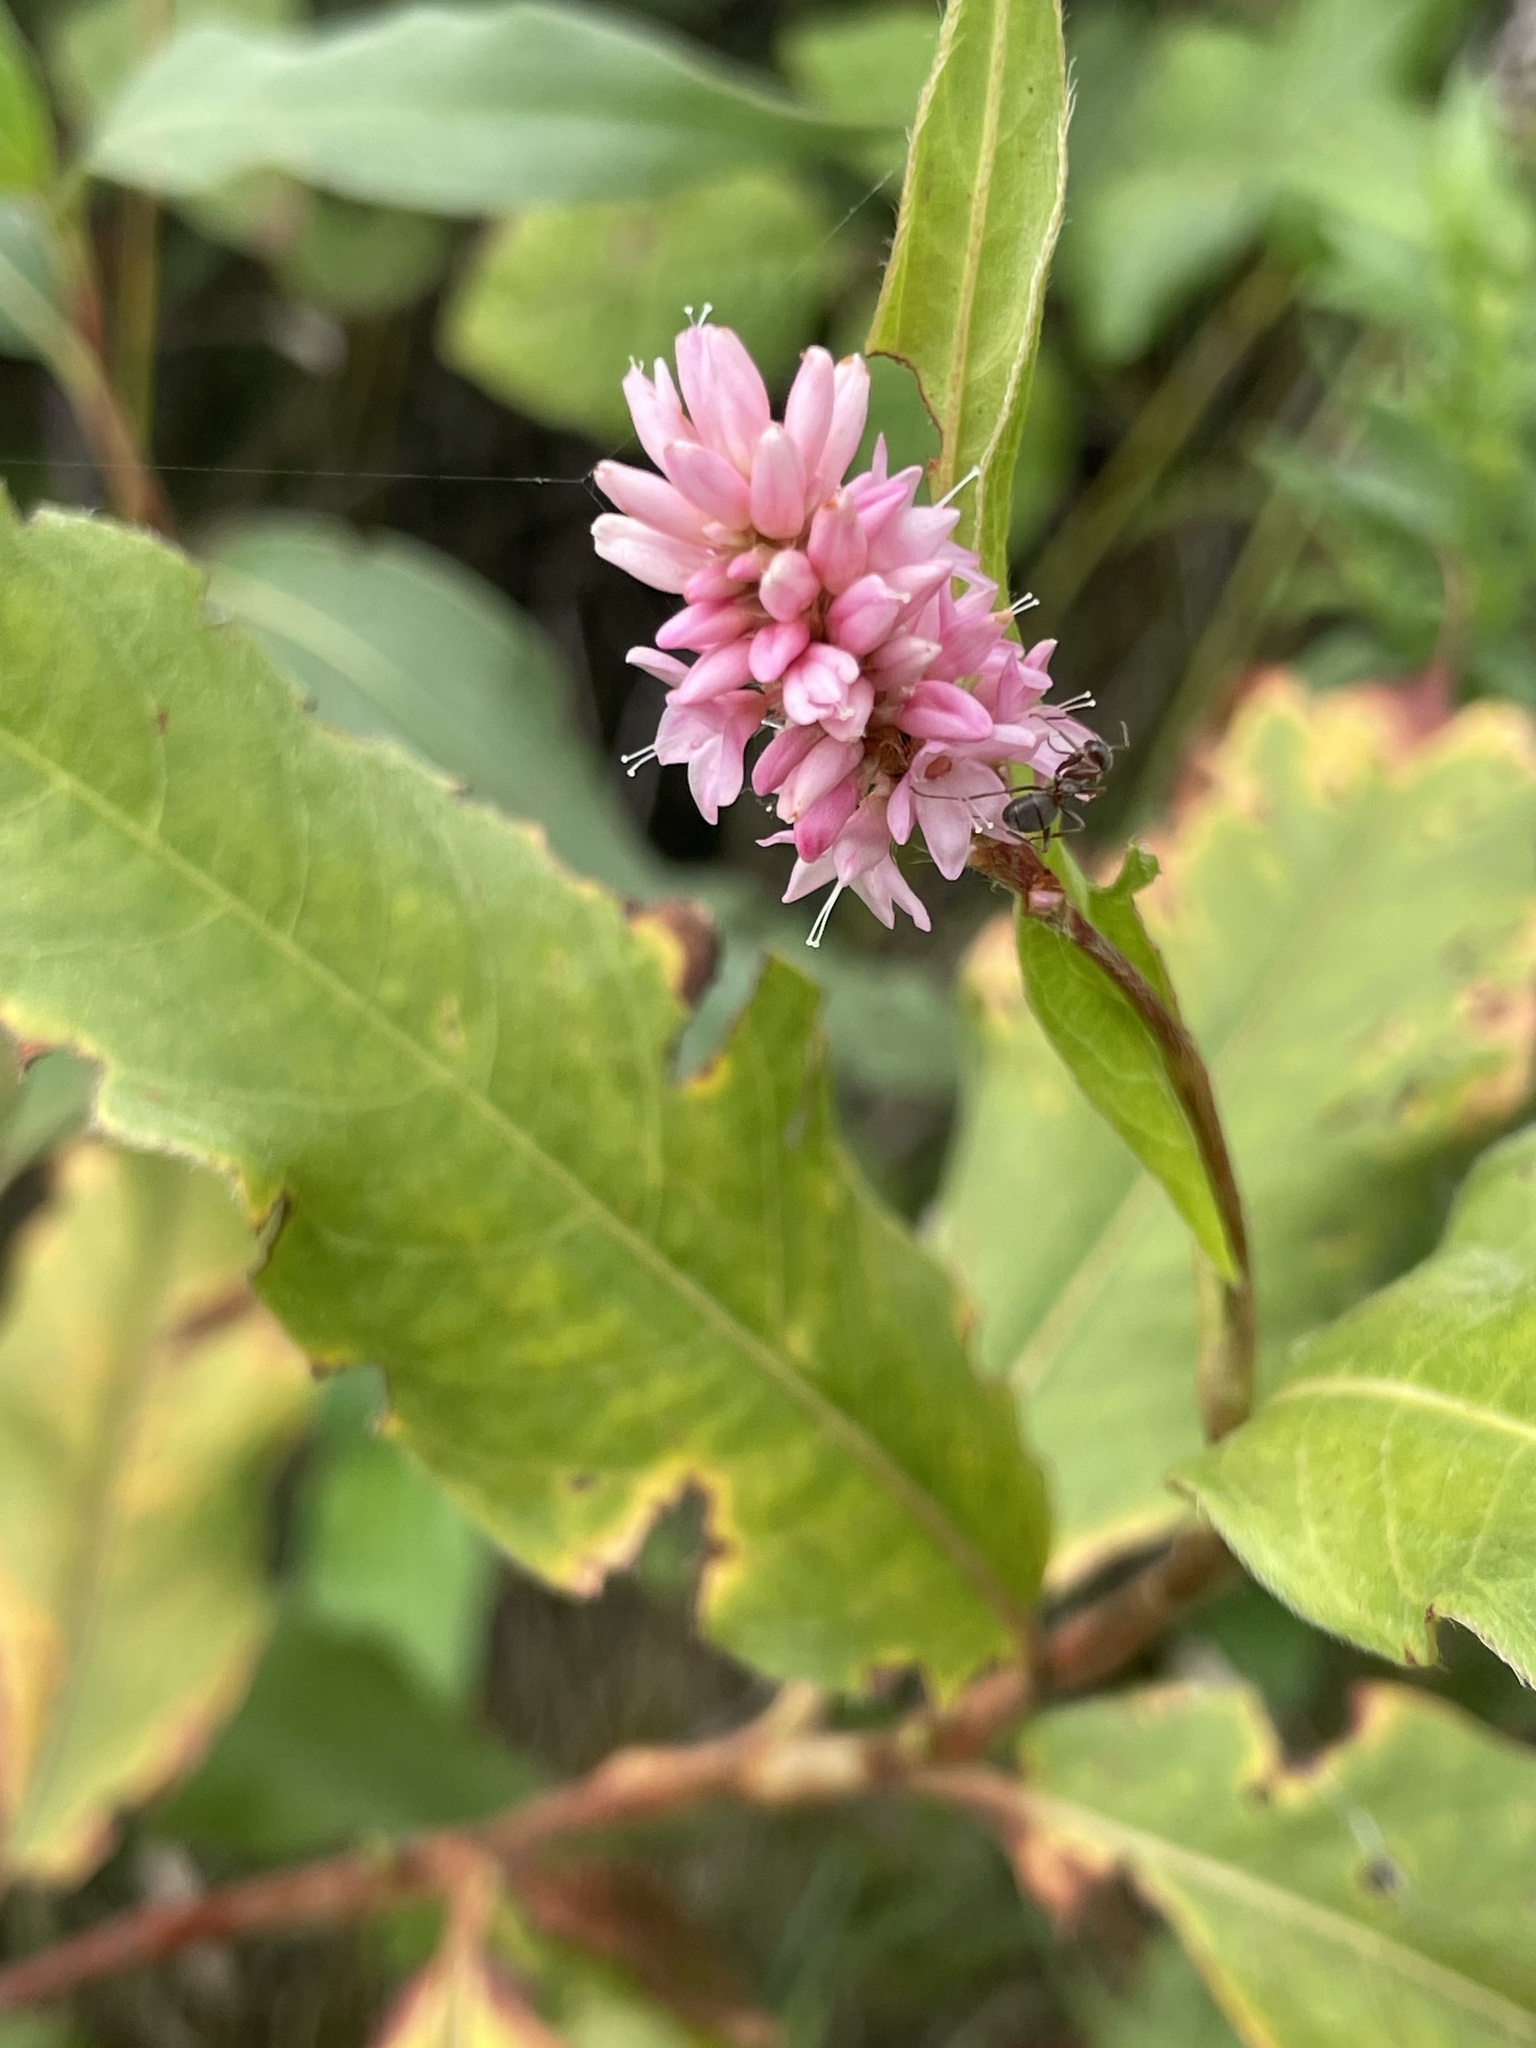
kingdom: Plantae
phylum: Tracheophyta
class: Magnoliopsida
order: Caryophyllales
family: Polygonaceae
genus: Persicaria
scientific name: Persicaria amphibia
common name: Amphibious bistort
